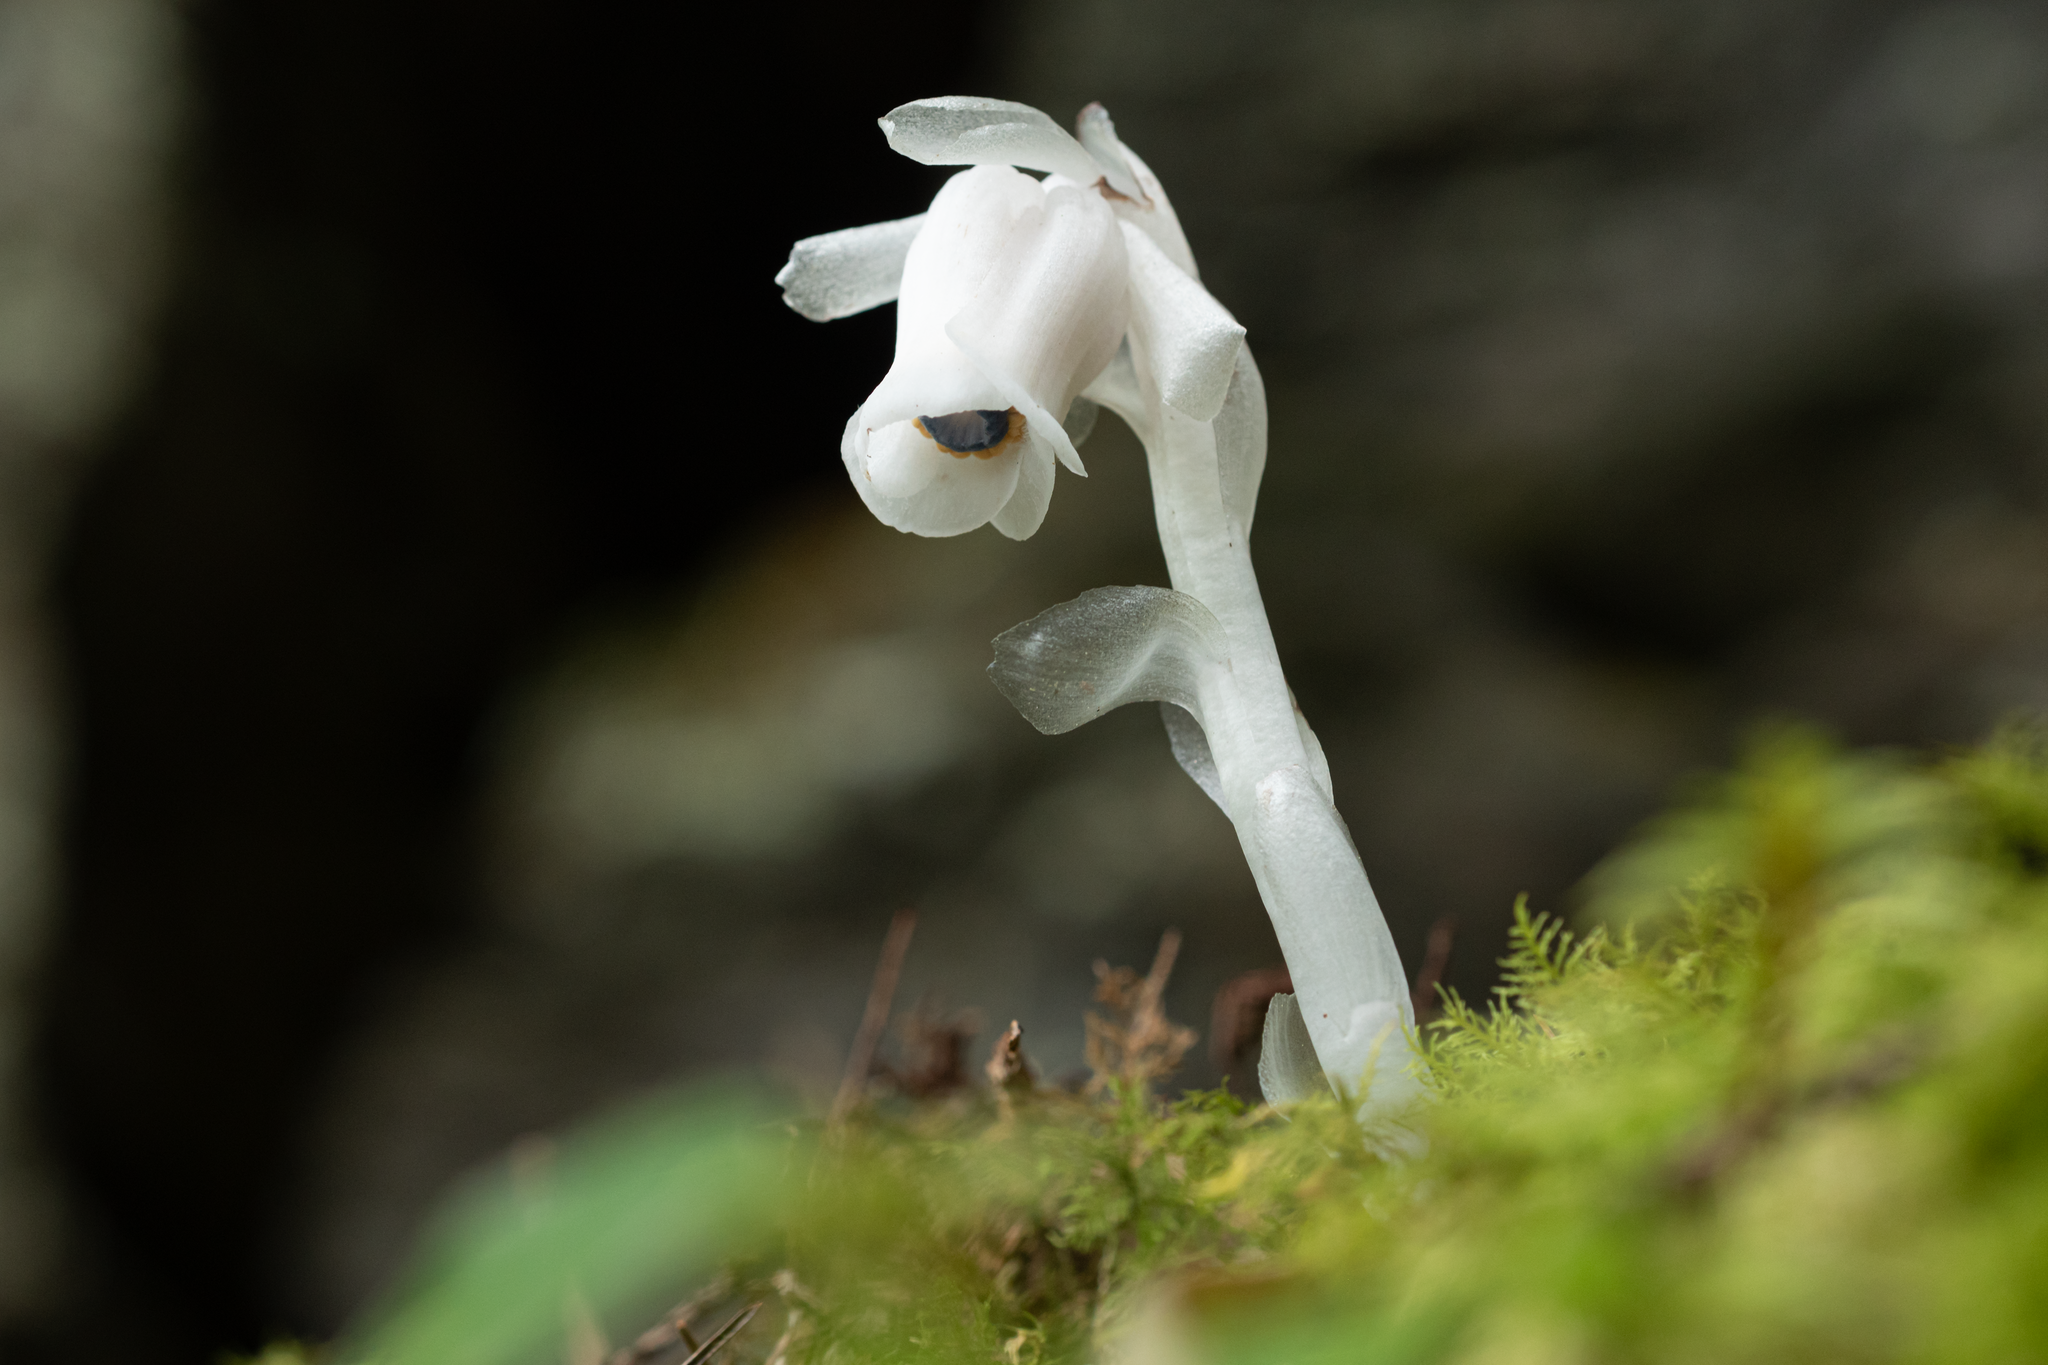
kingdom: Plantae
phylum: Tracheophyta
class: Magnoliopsida
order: Ericales
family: Ericaceae
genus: Monotropastrum
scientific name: Monotropastrum humile
